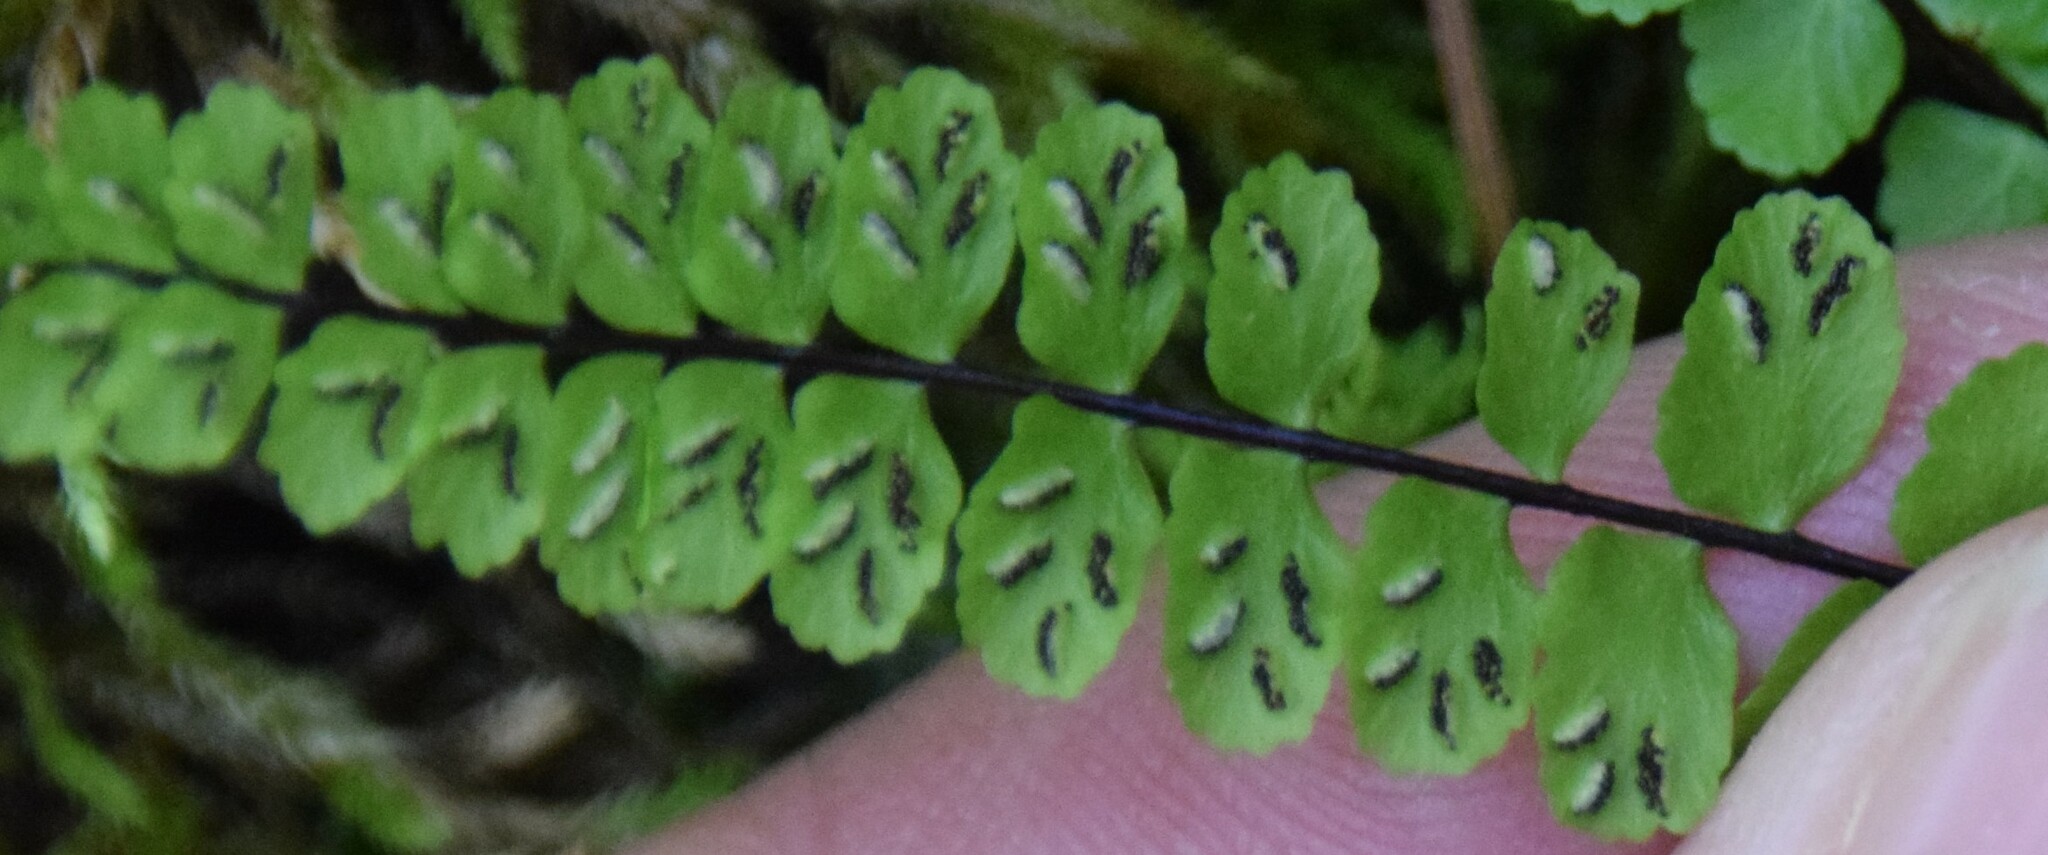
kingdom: Plantae
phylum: Tracheophyta
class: Polypodiopsida
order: Polypodiales
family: Aspleniaceae
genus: Asplenium
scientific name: Asplenium trichomanes
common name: Maidenhair spleenwort
